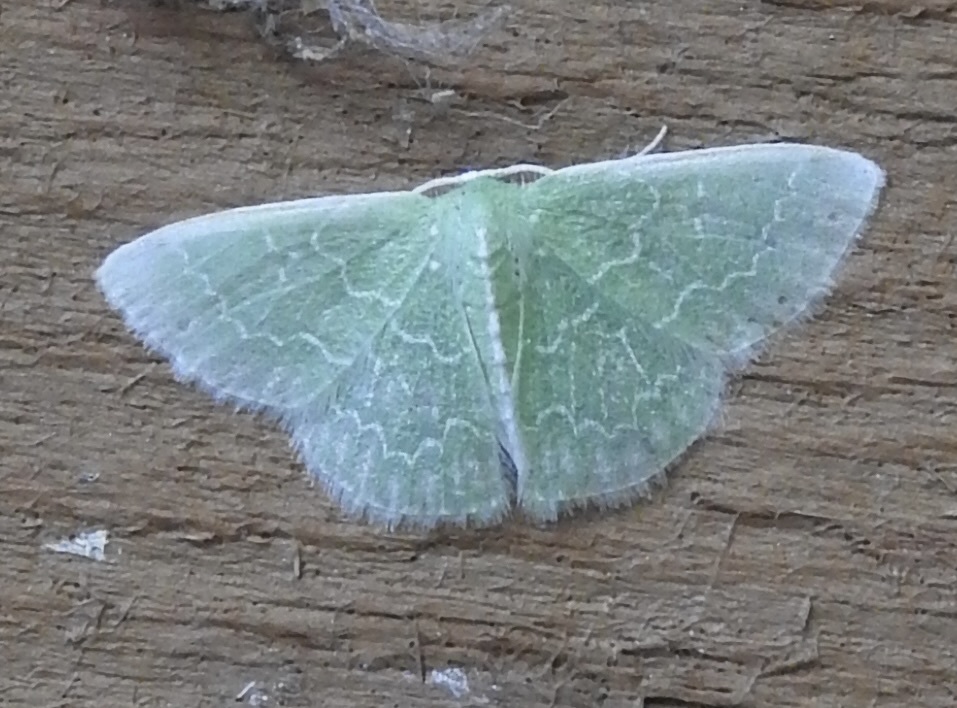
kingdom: Animalia
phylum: Arthropoda
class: Insecta
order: Lepidoptera
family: Geometridae
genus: Synchlora
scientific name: Synchlora frondaria
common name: Southern emerald
